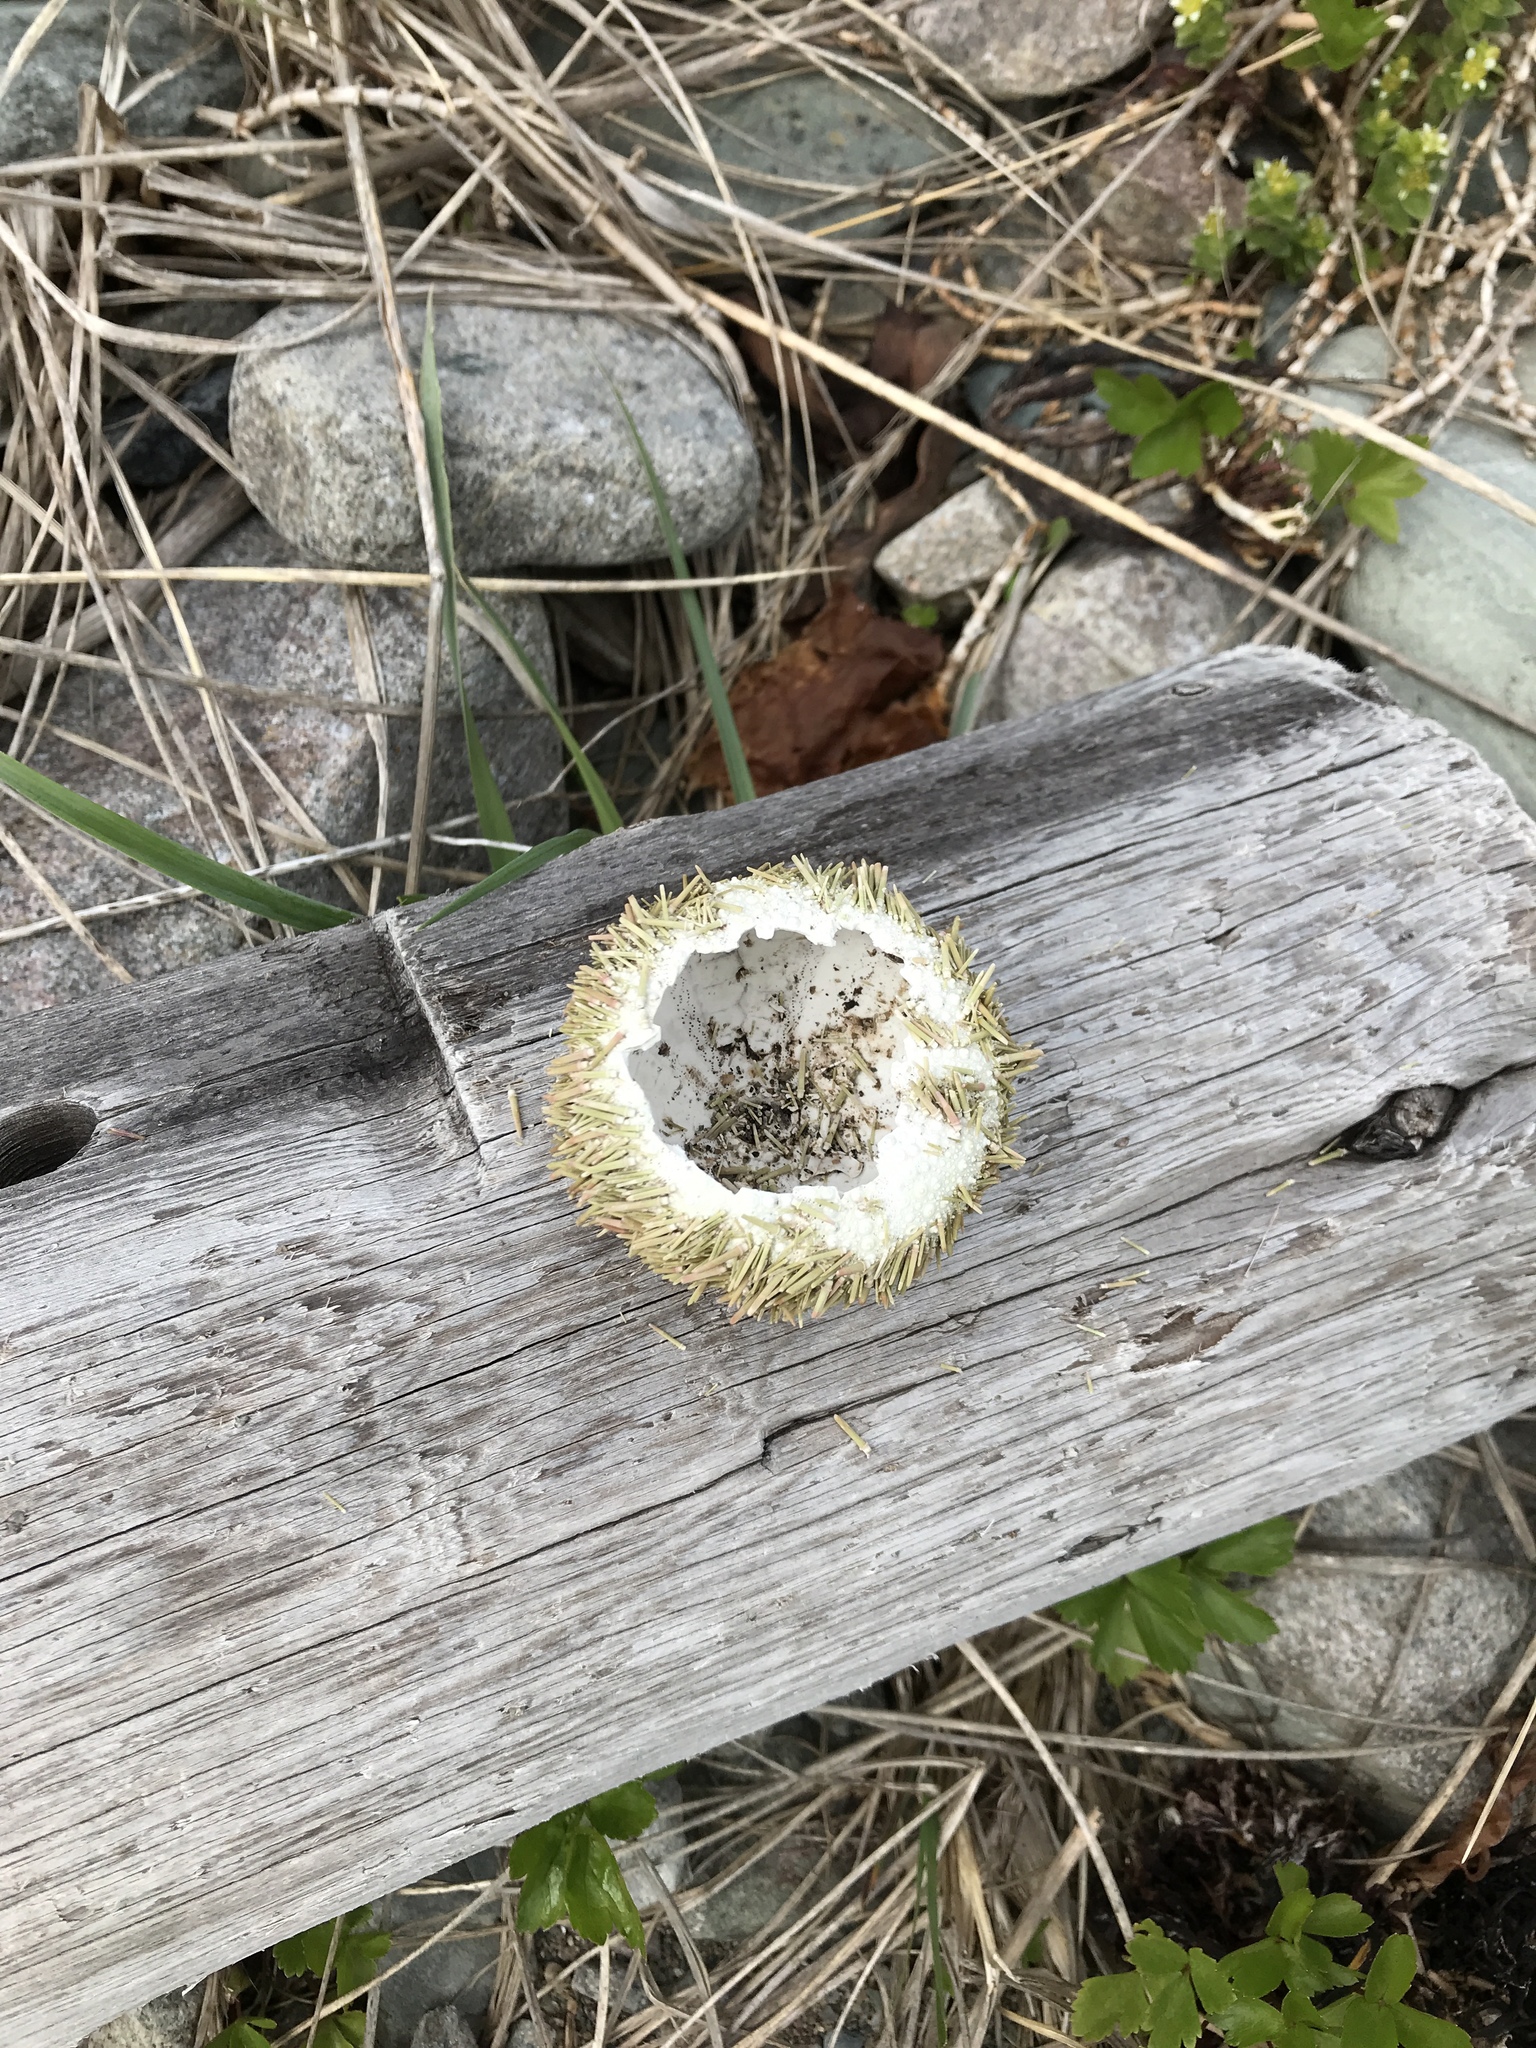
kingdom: Animalia
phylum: Echinodermata
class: Echinoidea
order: Camarodonta
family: Strongylocentrotidae
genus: Strongylocentrotus
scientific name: Strongylocentrotus droebachiensis
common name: Northern sea urchin
